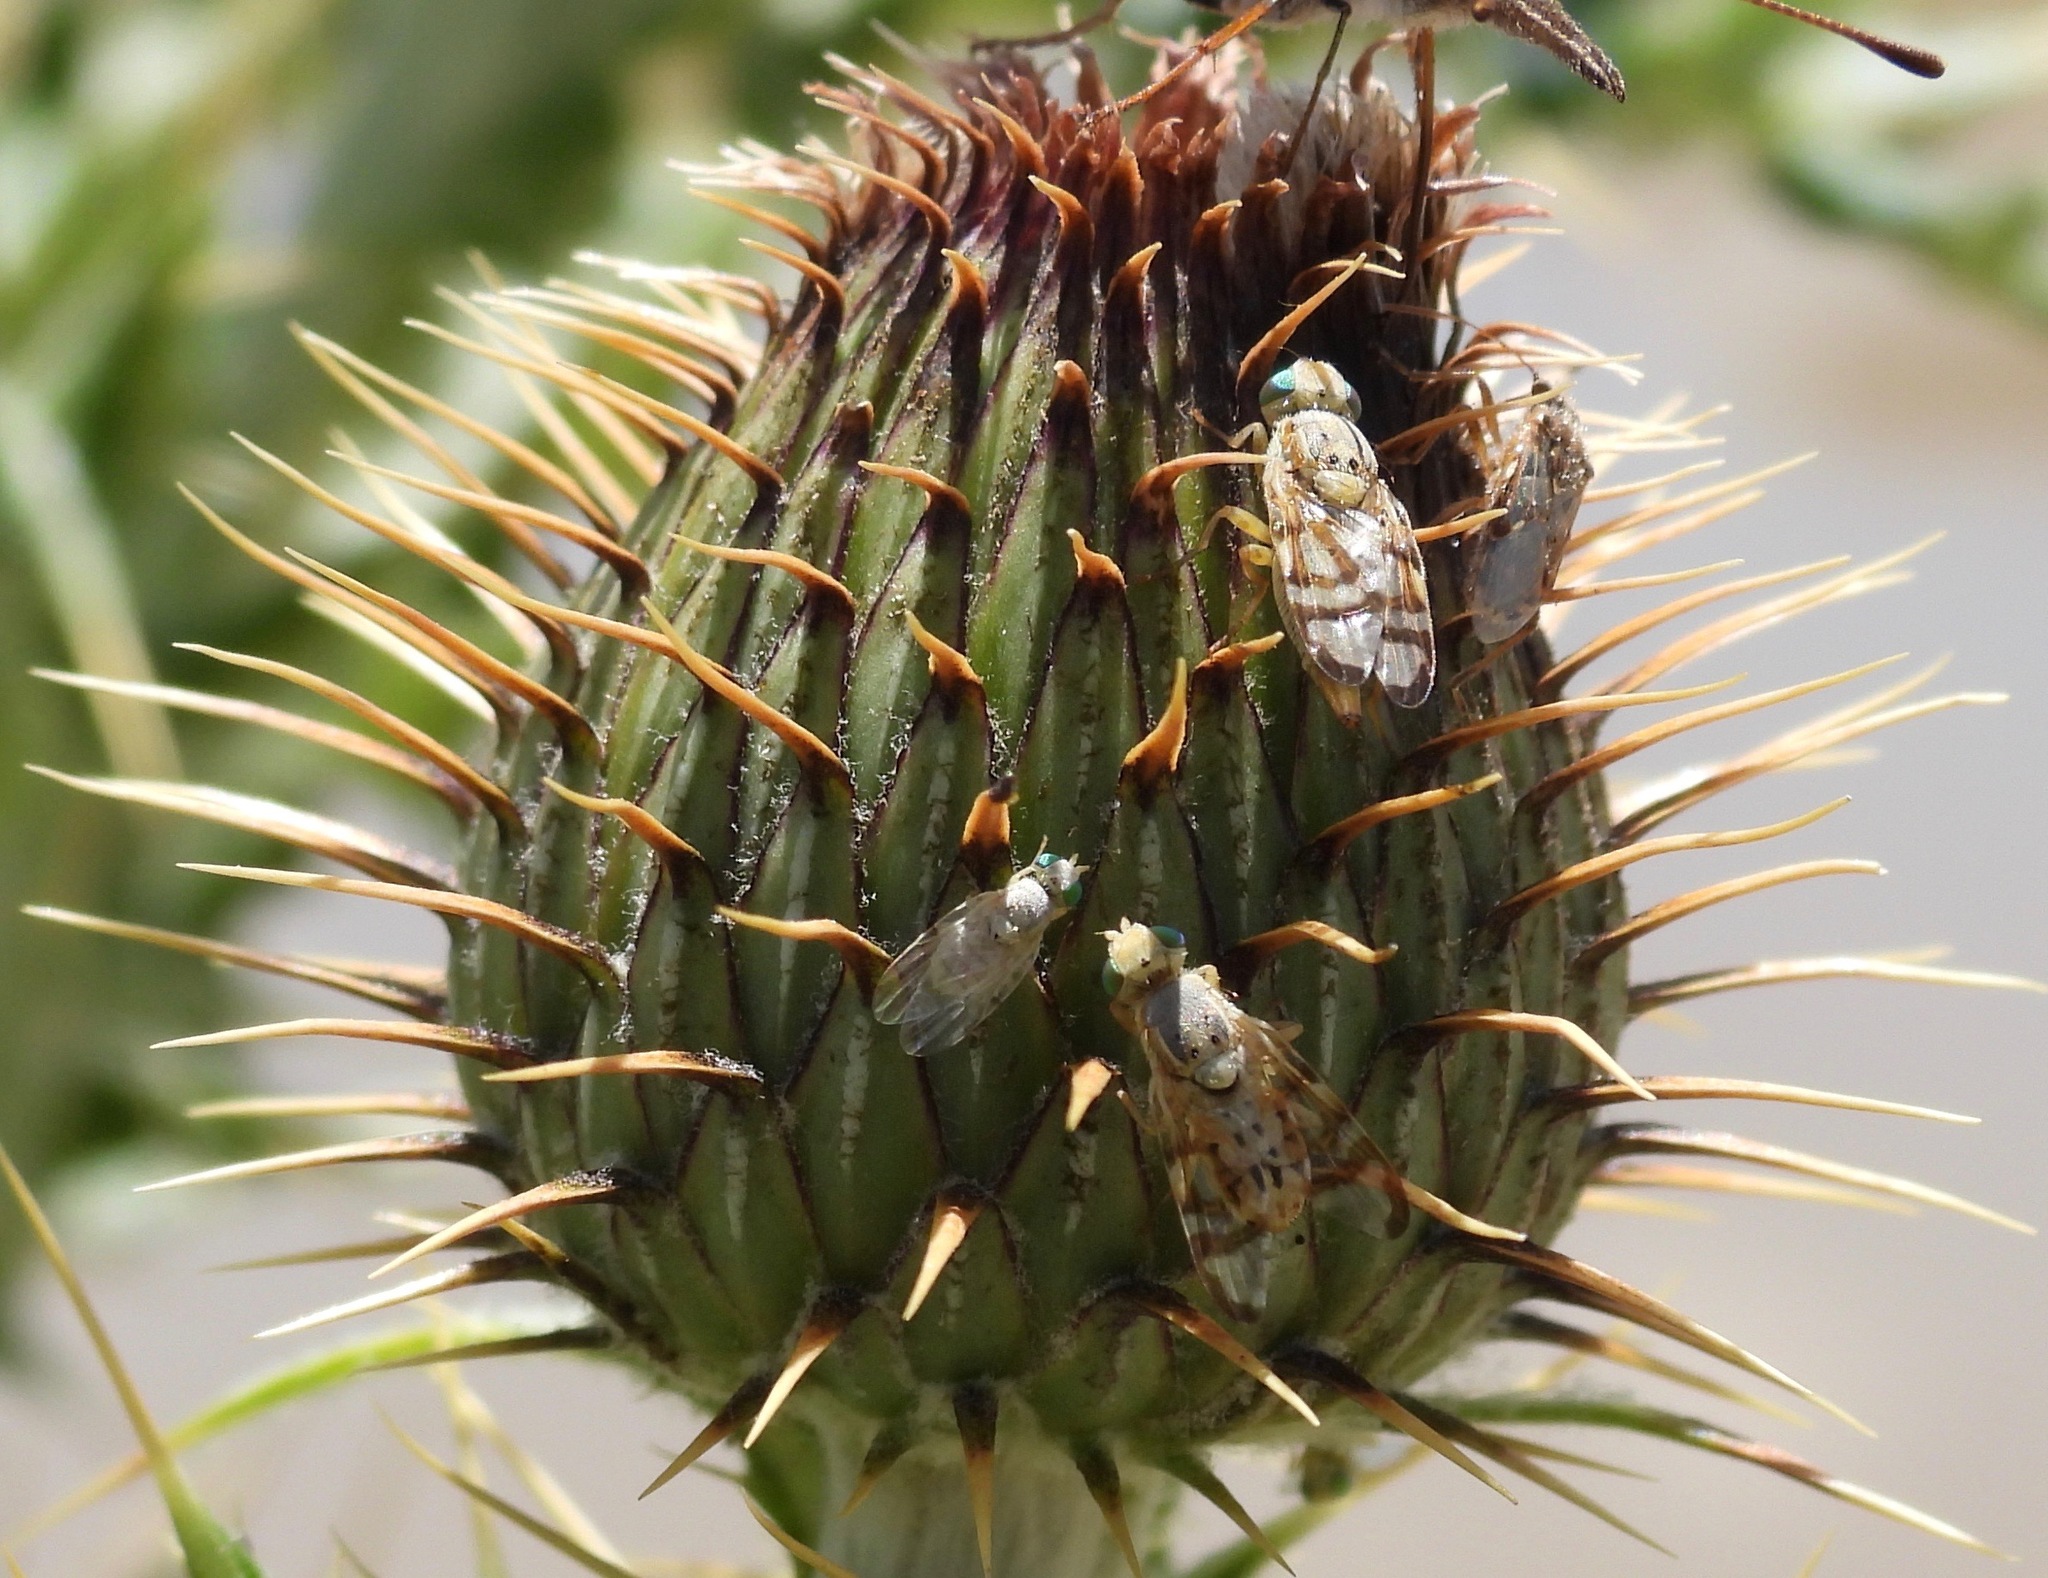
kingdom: Animalia
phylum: Arthropoda
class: Insecta
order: Diptera
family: Tephritidae
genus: Terellia
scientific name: Terellia palposa
